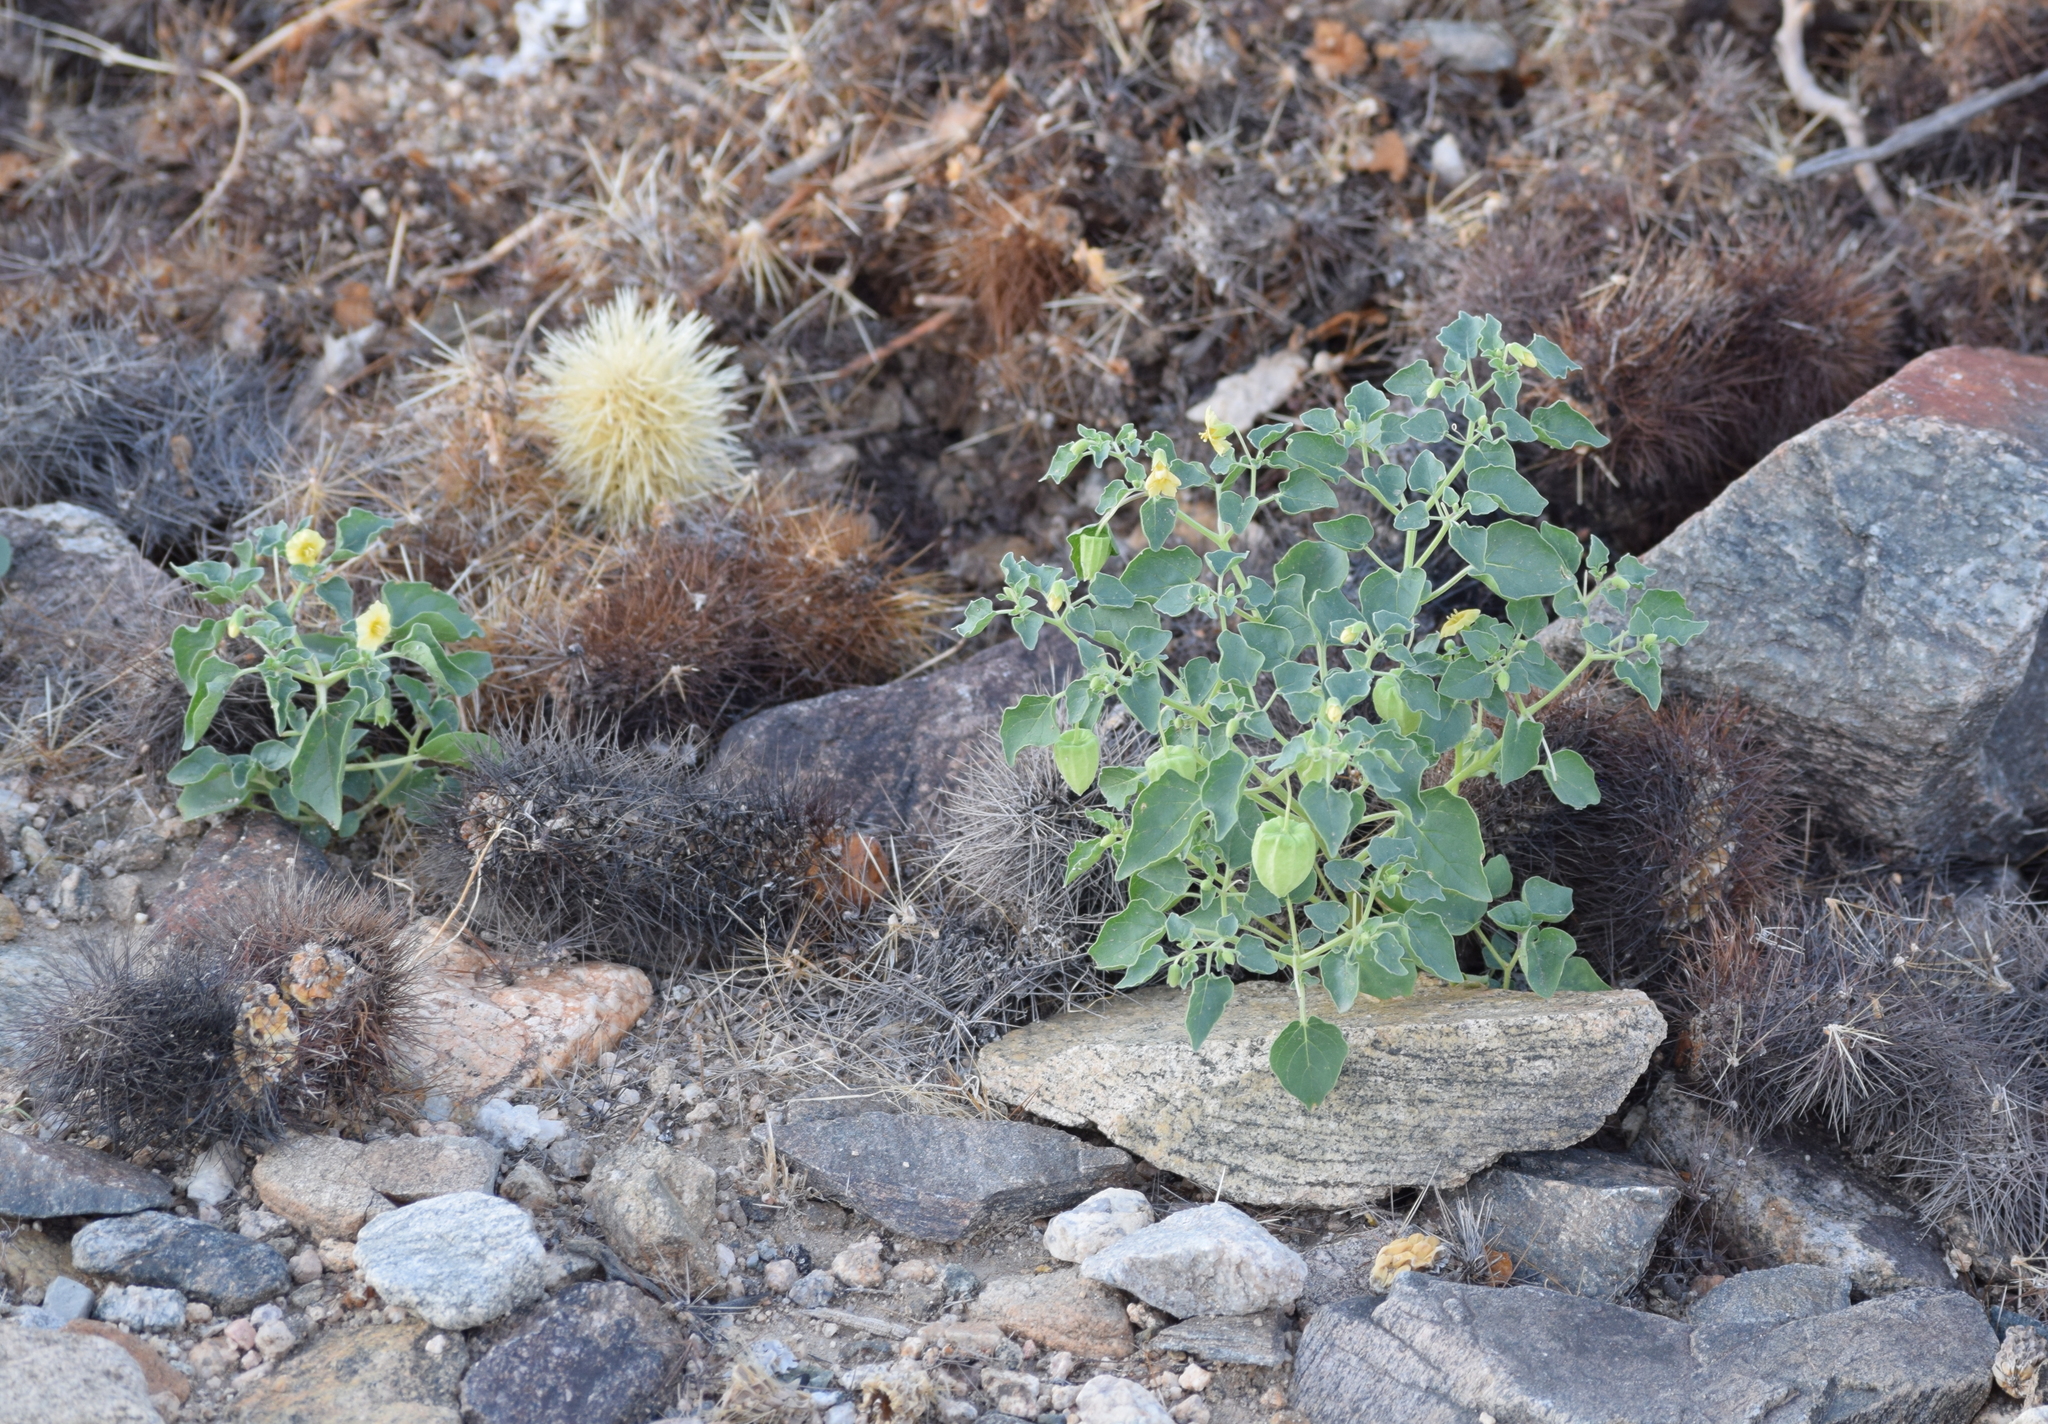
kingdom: Plantae
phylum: Tracheophyta
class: Magnoliopsida
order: Solanales
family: Solanaceae
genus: Physalis
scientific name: Physalis crassifolia
